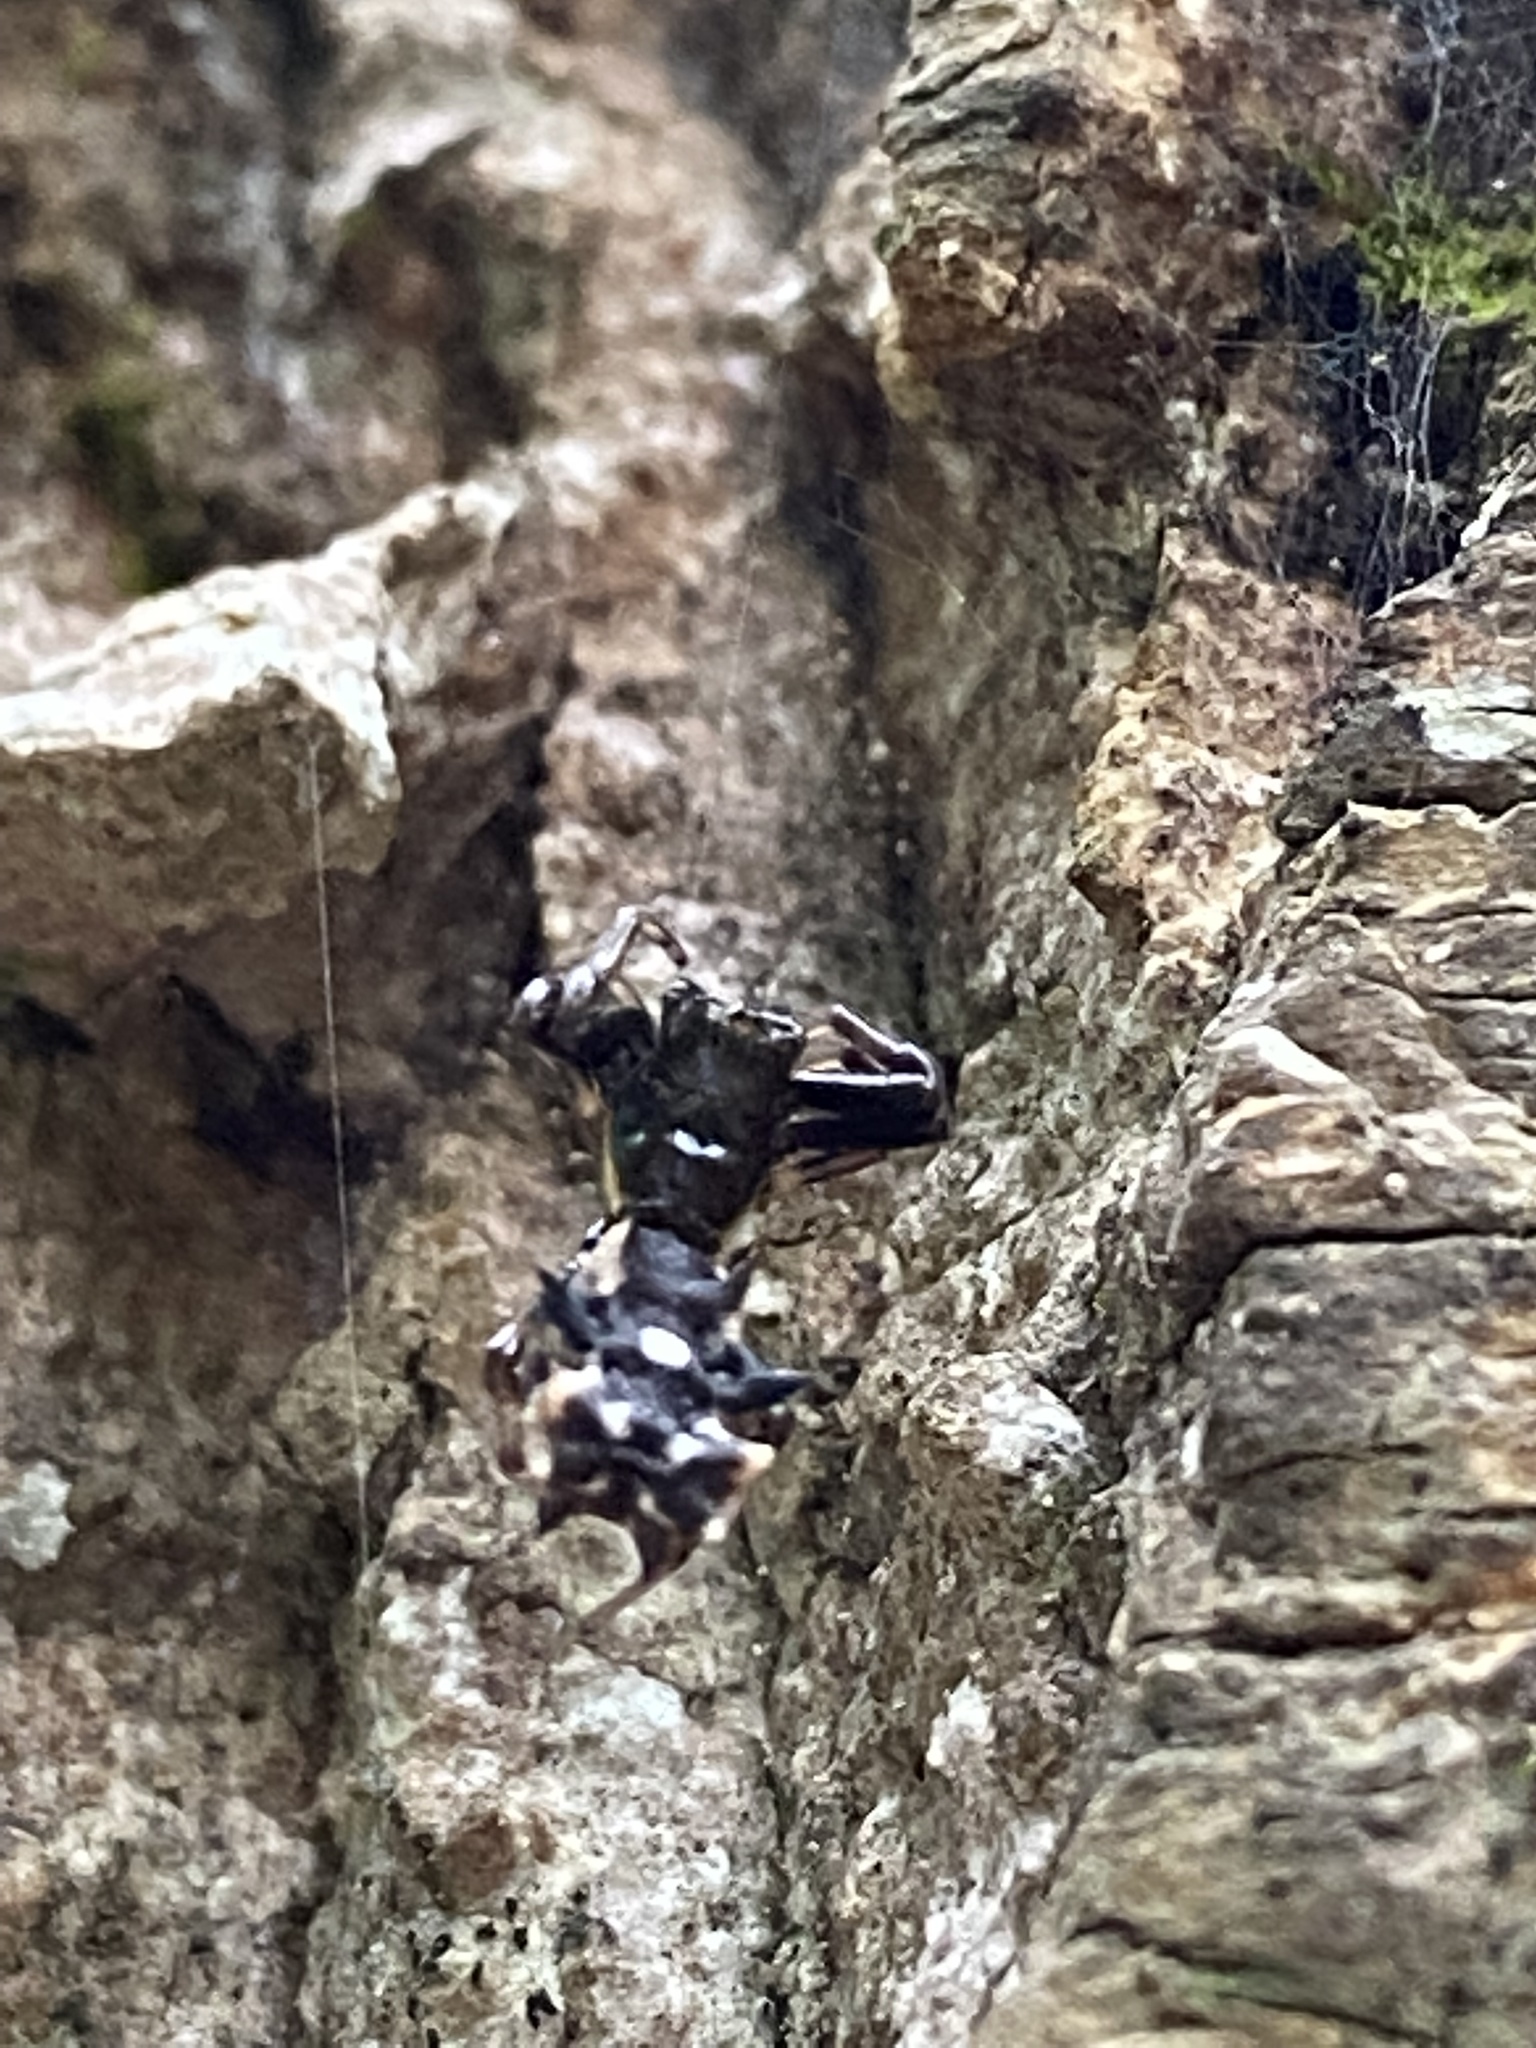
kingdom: Animalia
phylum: Arthropoda
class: Arachnida
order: Araneae
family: Araneidae
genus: Micrathena
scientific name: Micrathena gracilis
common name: Orb weavers
